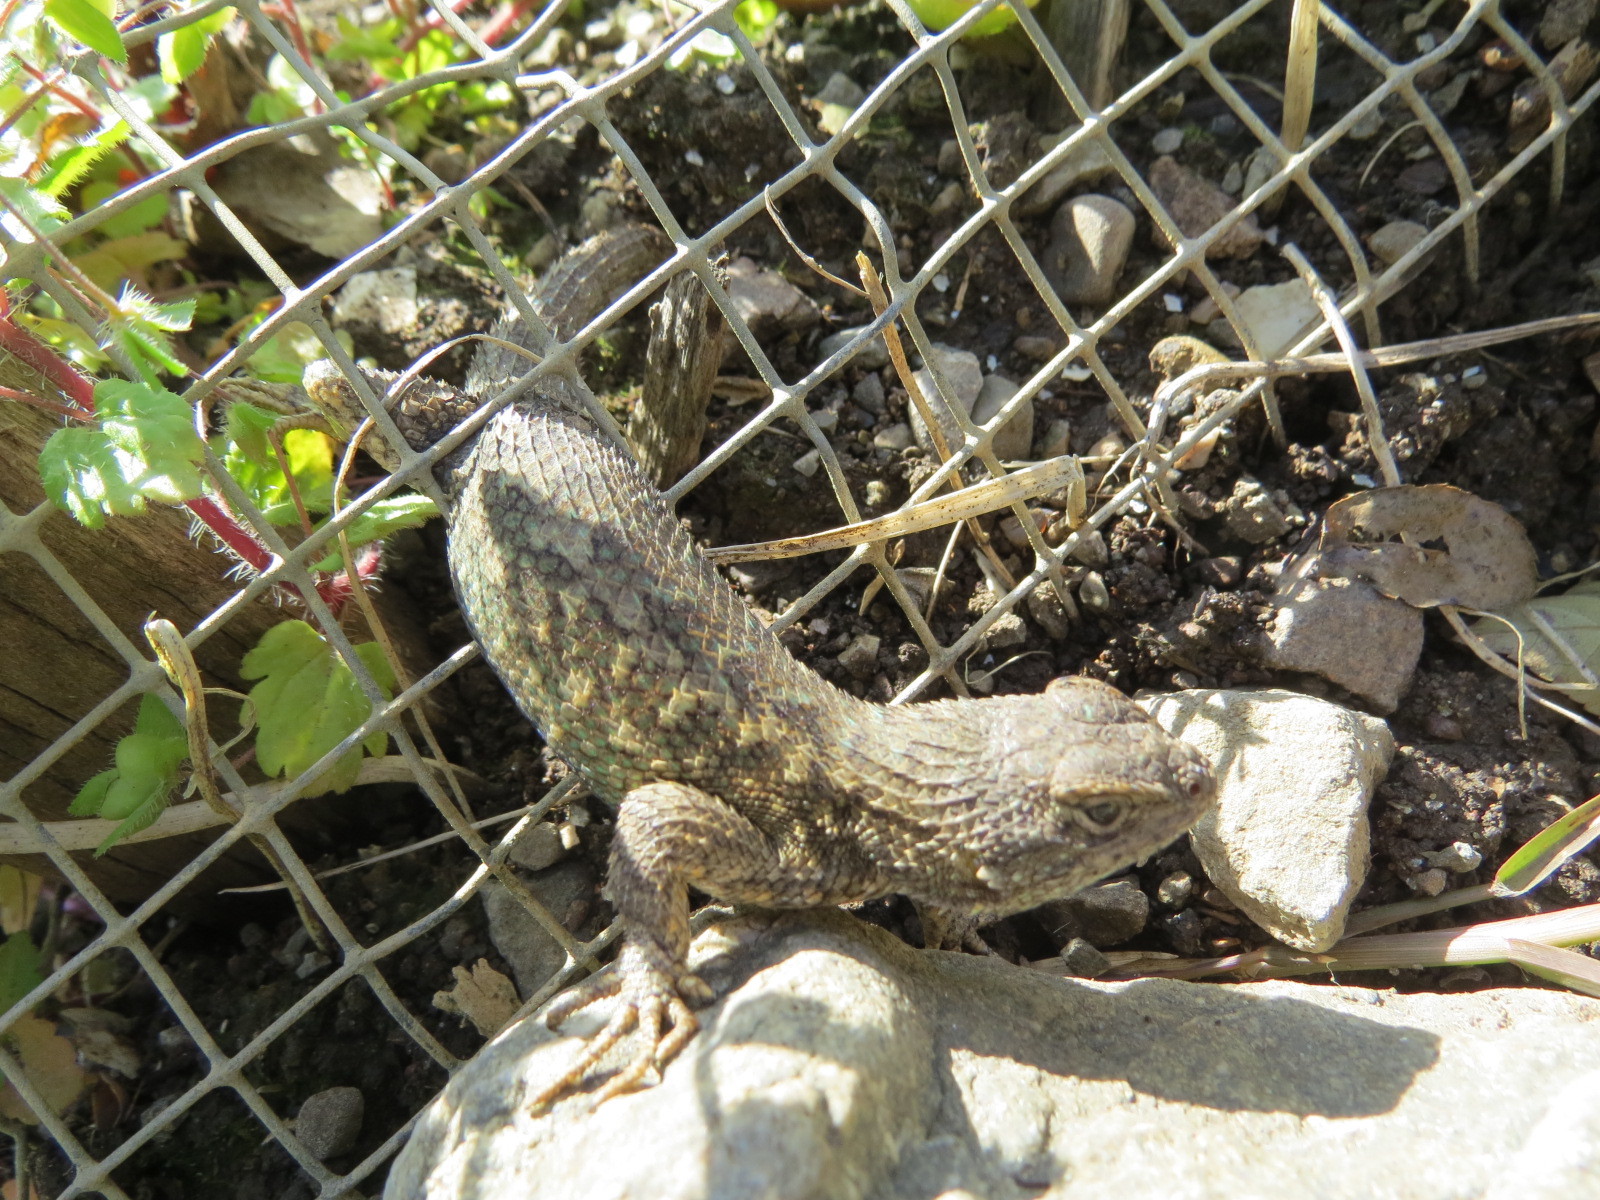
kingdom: Animalia
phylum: Chordata
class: Squamata
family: Phrynosomatidae
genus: Sceloporus
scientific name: Sceloporus occidentalis
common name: Western fence lizard
